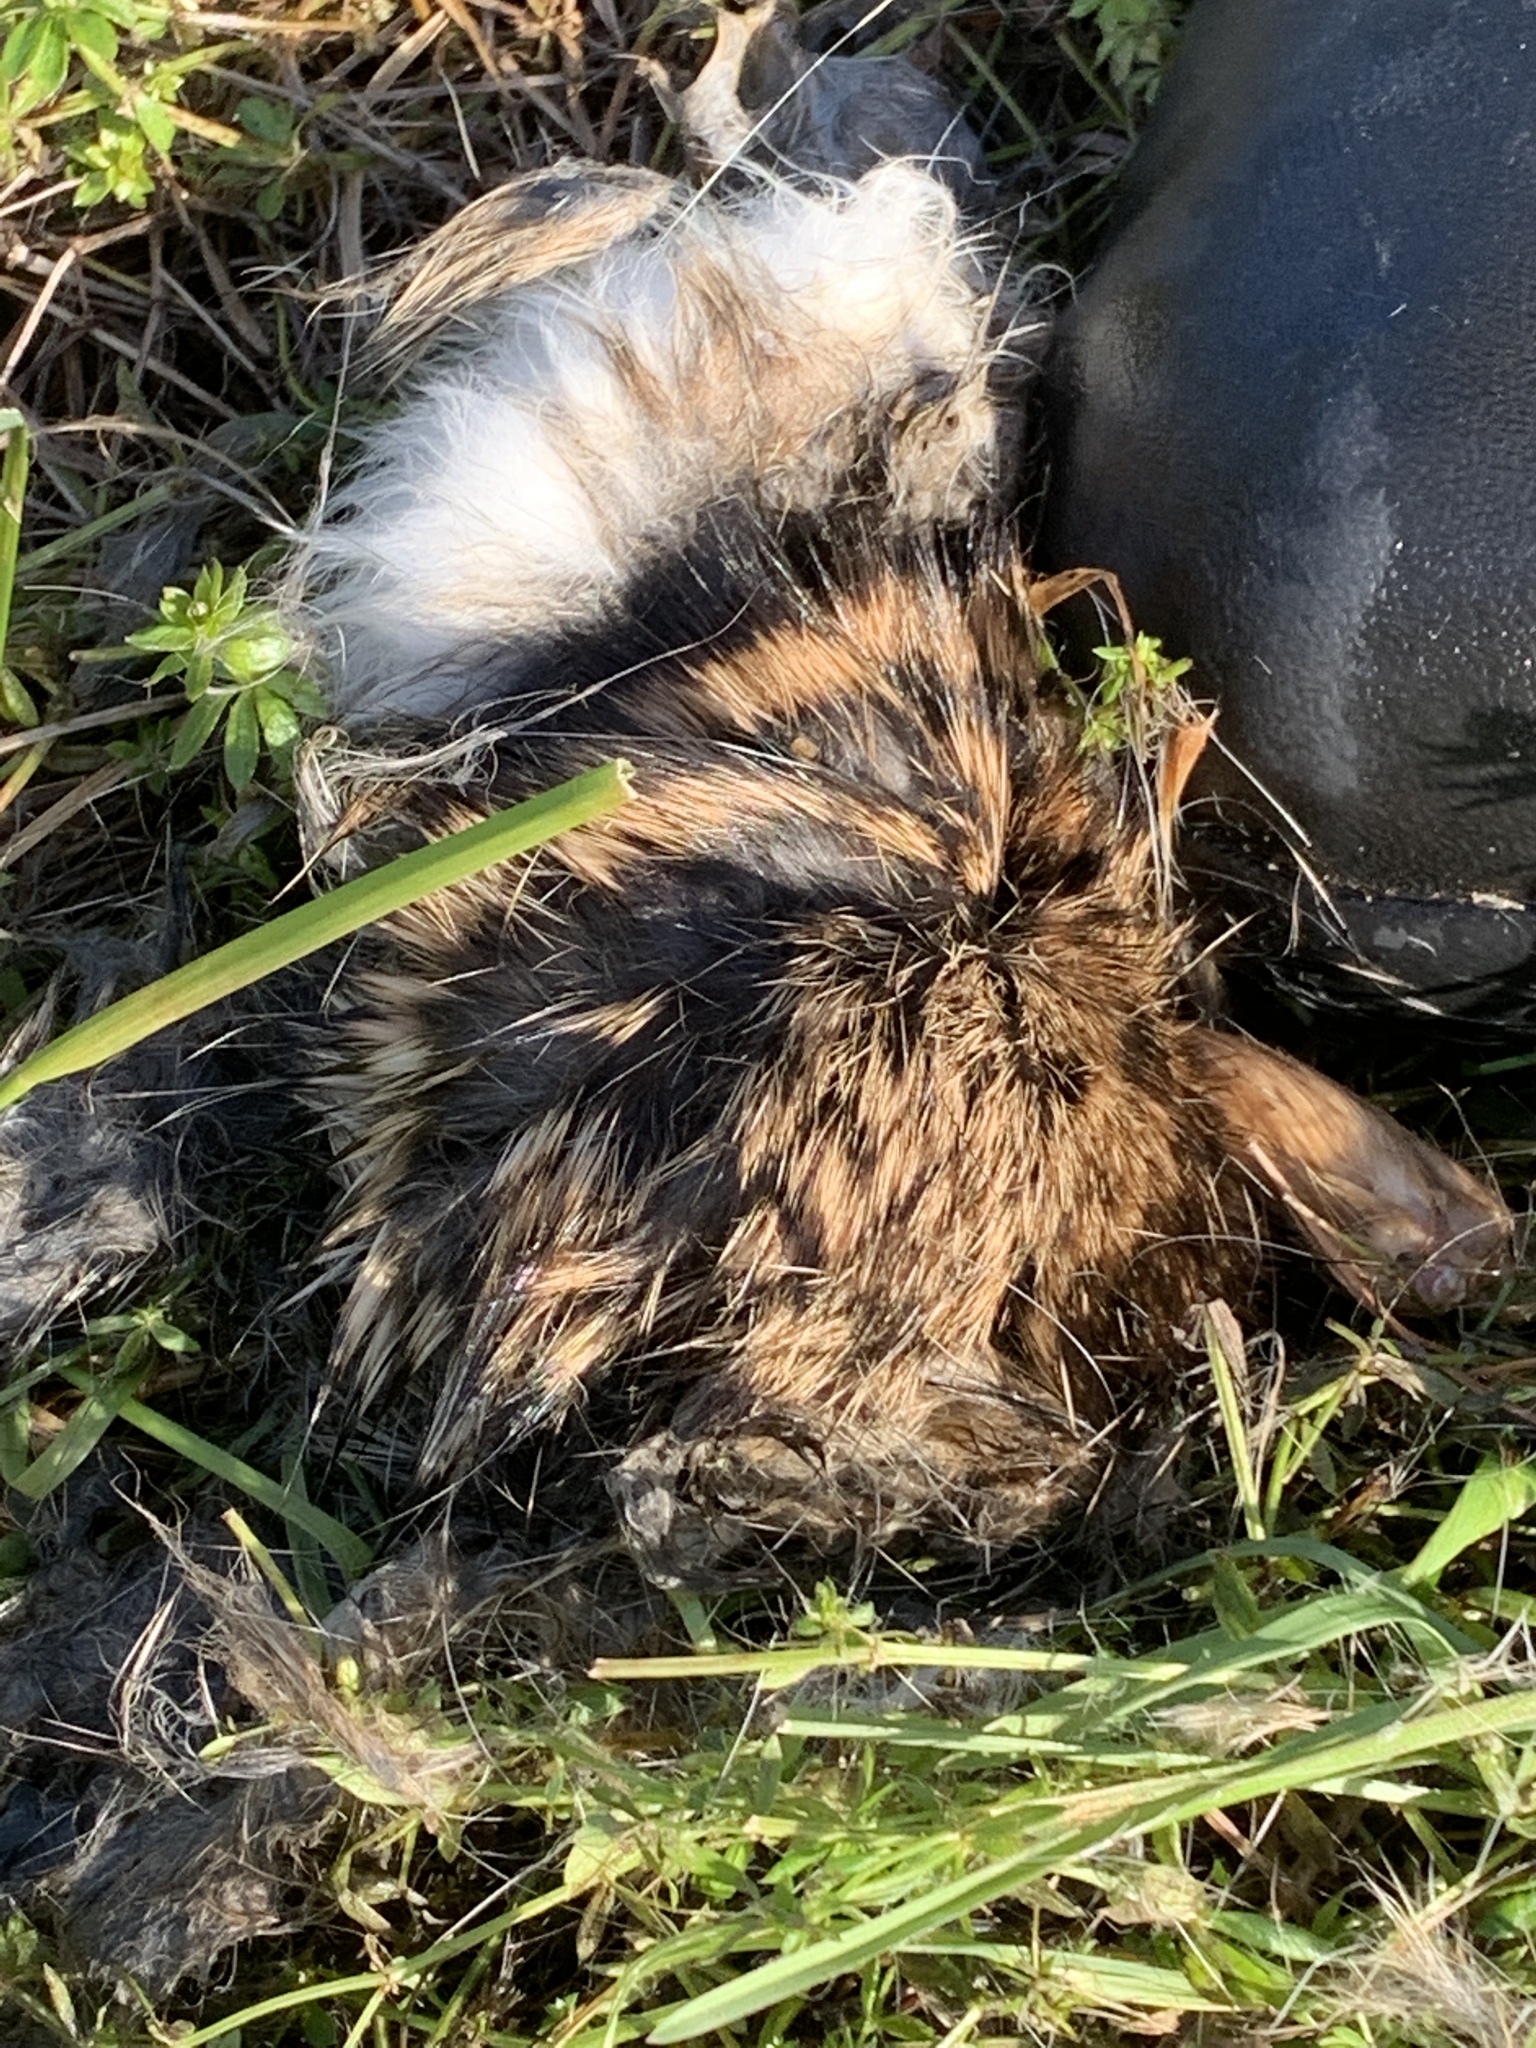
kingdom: Animalia
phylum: Chordata
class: Mammalia
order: Lagomorpha
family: Leporidae
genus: Sylvilagus
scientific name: Sylvilagus floridanus
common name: Eastern cottontail
